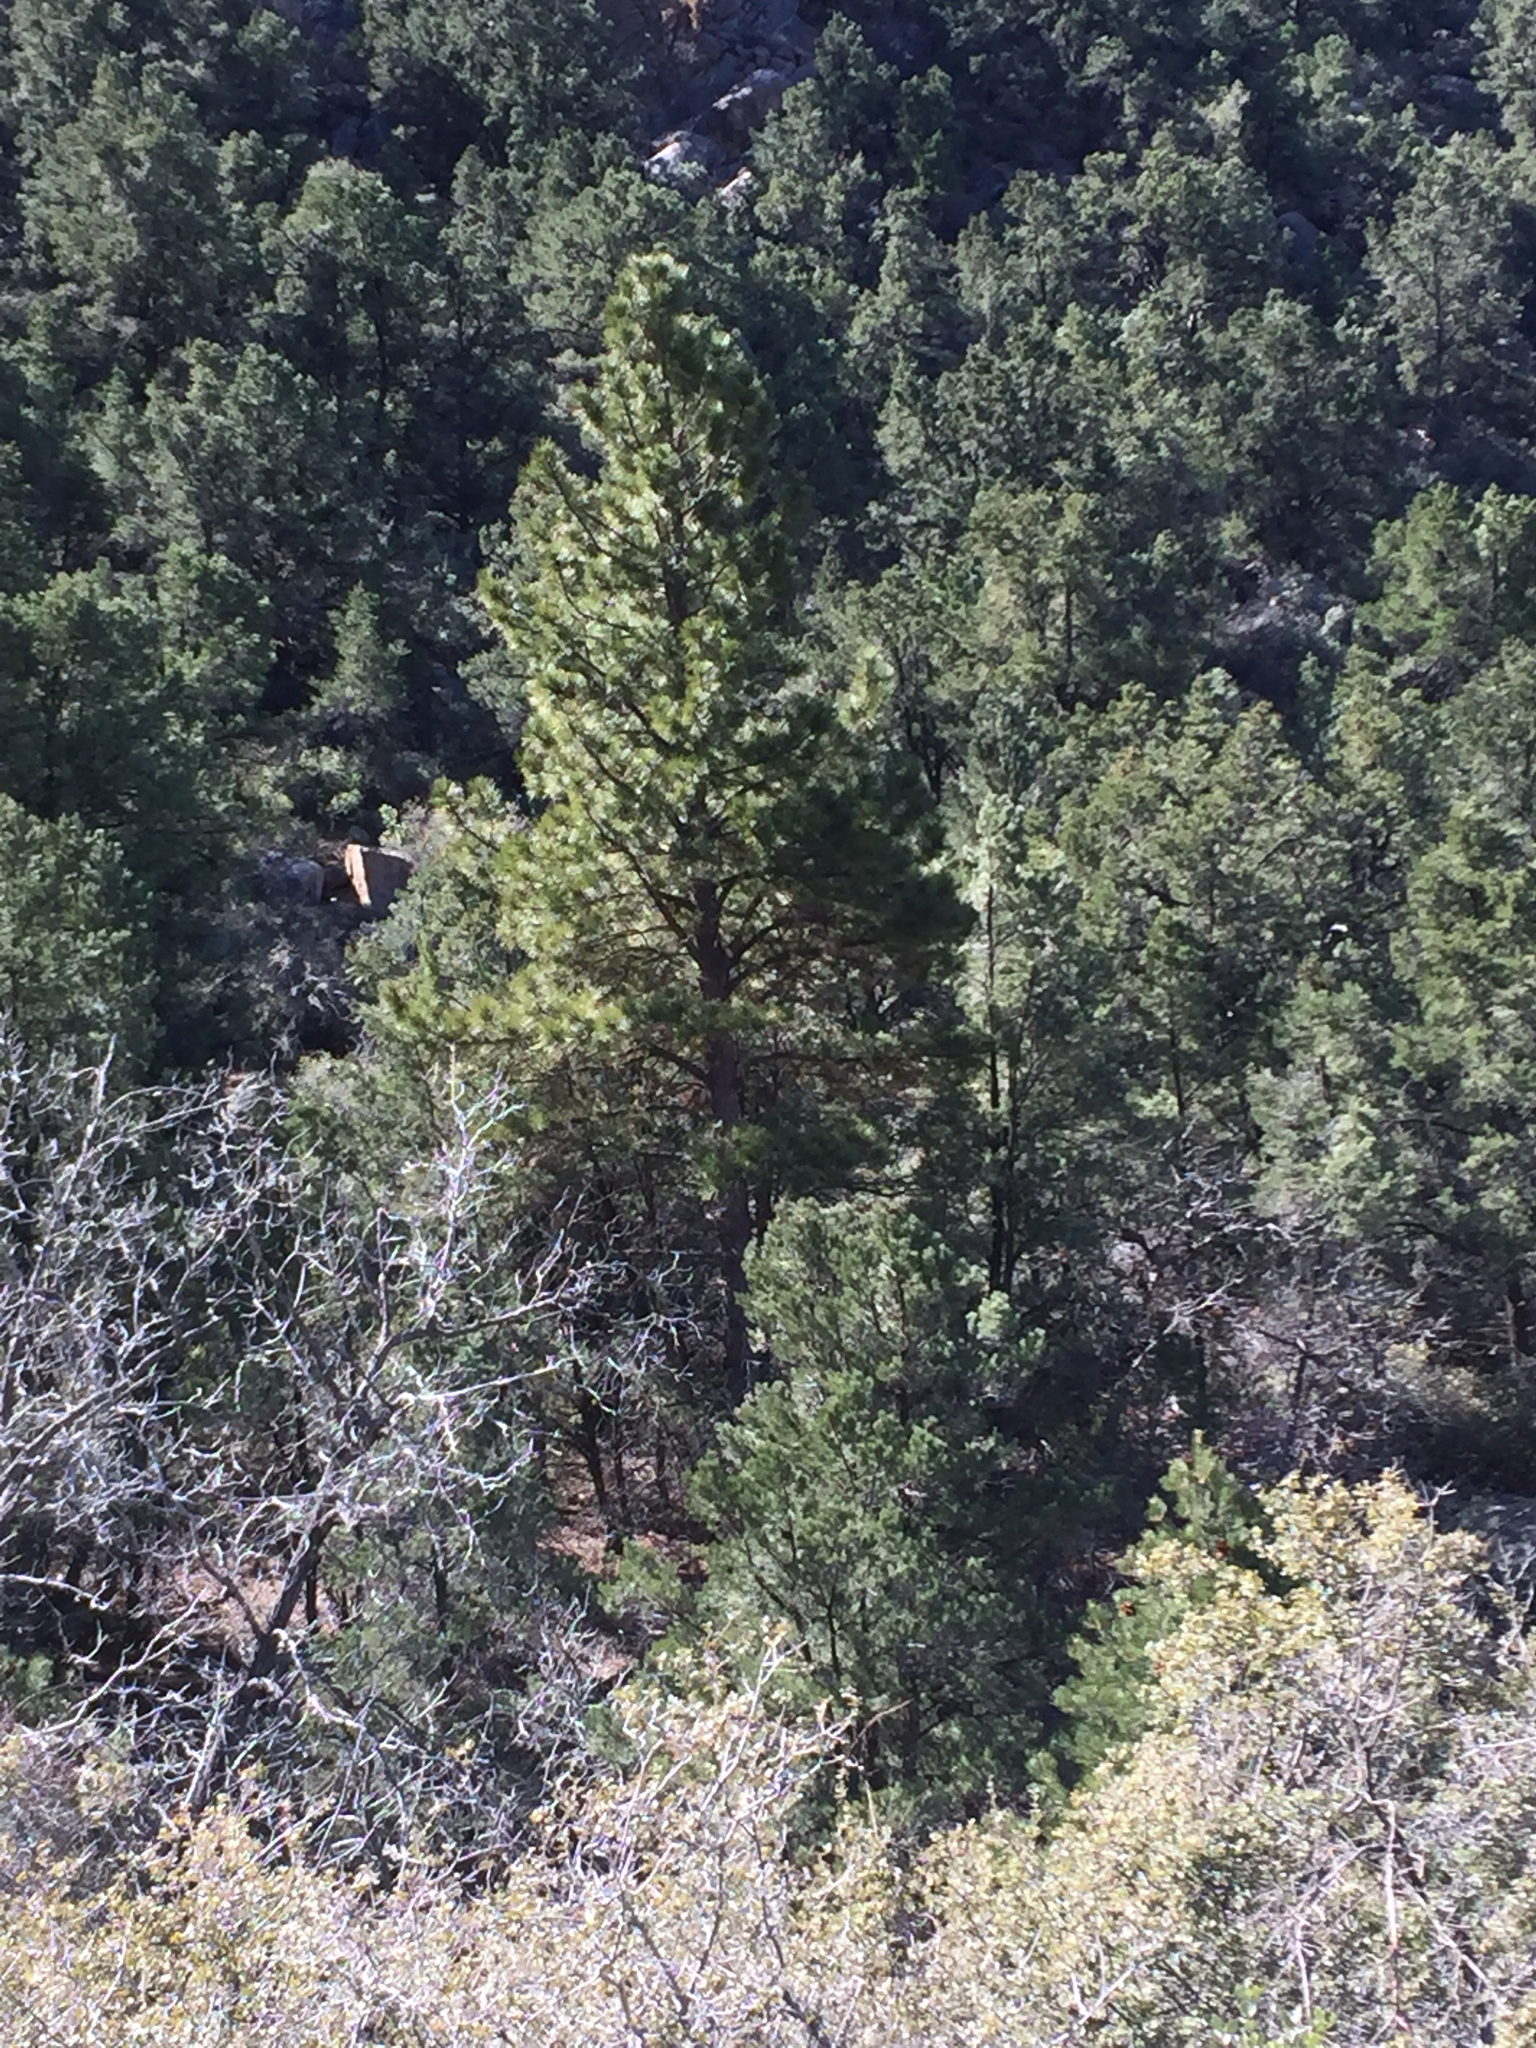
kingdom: Plantae
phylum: Tracheophyta
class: Pinopsida
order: Pinales
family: Pinaceae
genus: Pinus
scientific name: Pinus ponderosa
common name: Western yellow-pine
